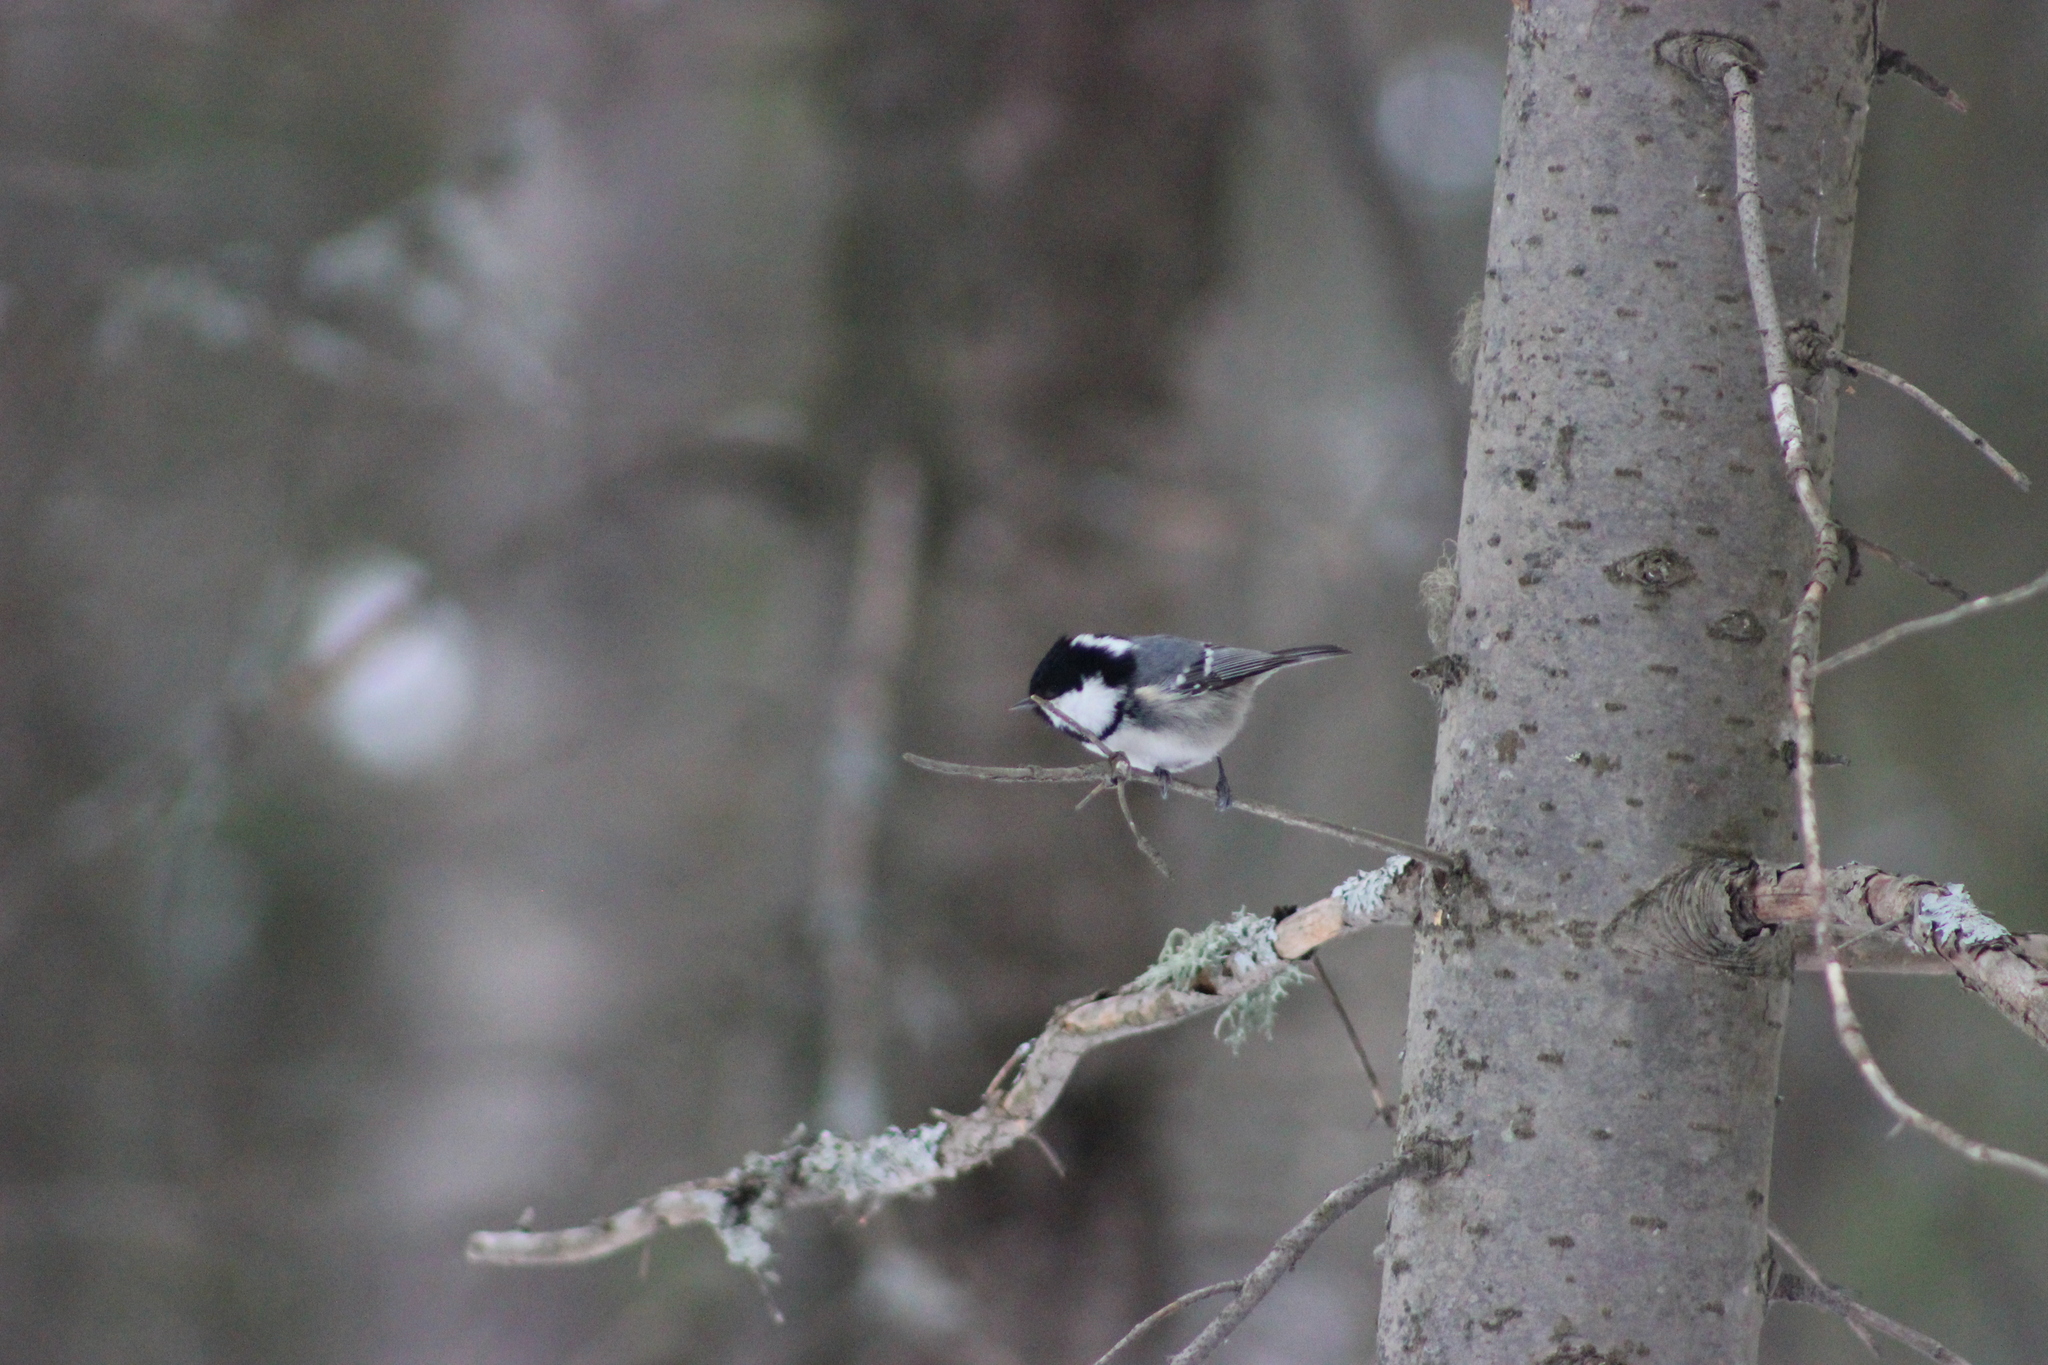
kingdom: Animalia
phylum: Chordata
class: Aves
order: Passeriformes
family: Paridae
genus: Periparus
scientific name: Periparus ater
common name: Coal tit
